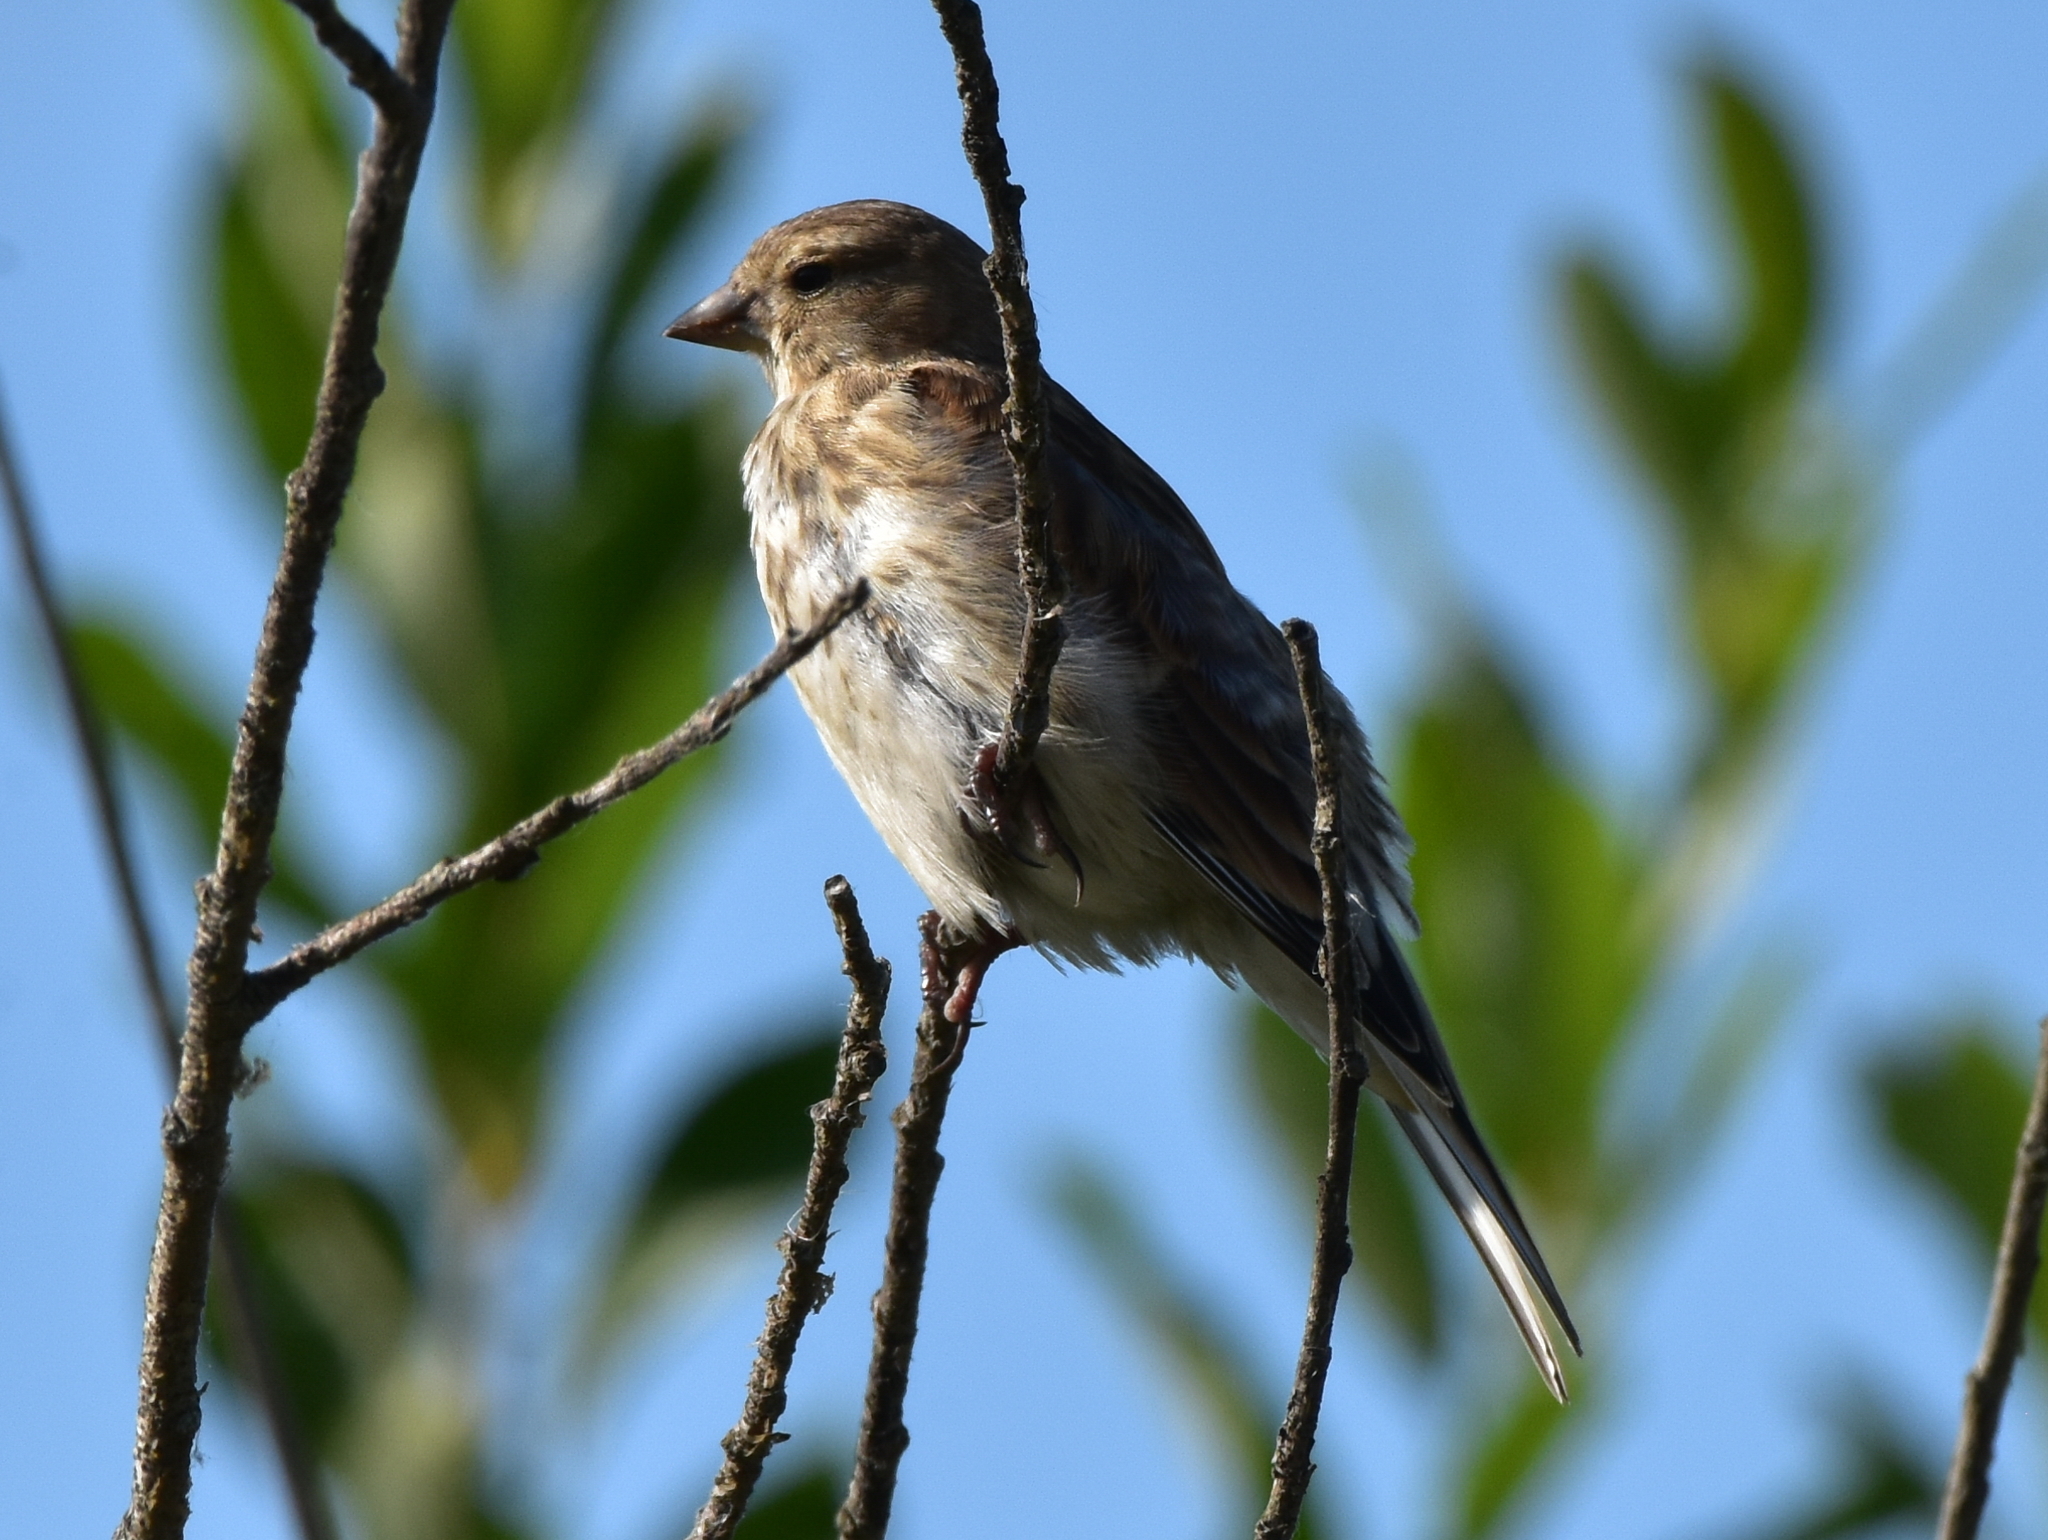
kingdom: Animalia
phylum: Chordata
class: Aves
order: Passeriformes
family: Fringillidae
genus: Linaria
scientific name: Linaria cannabina
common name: Common linnet
